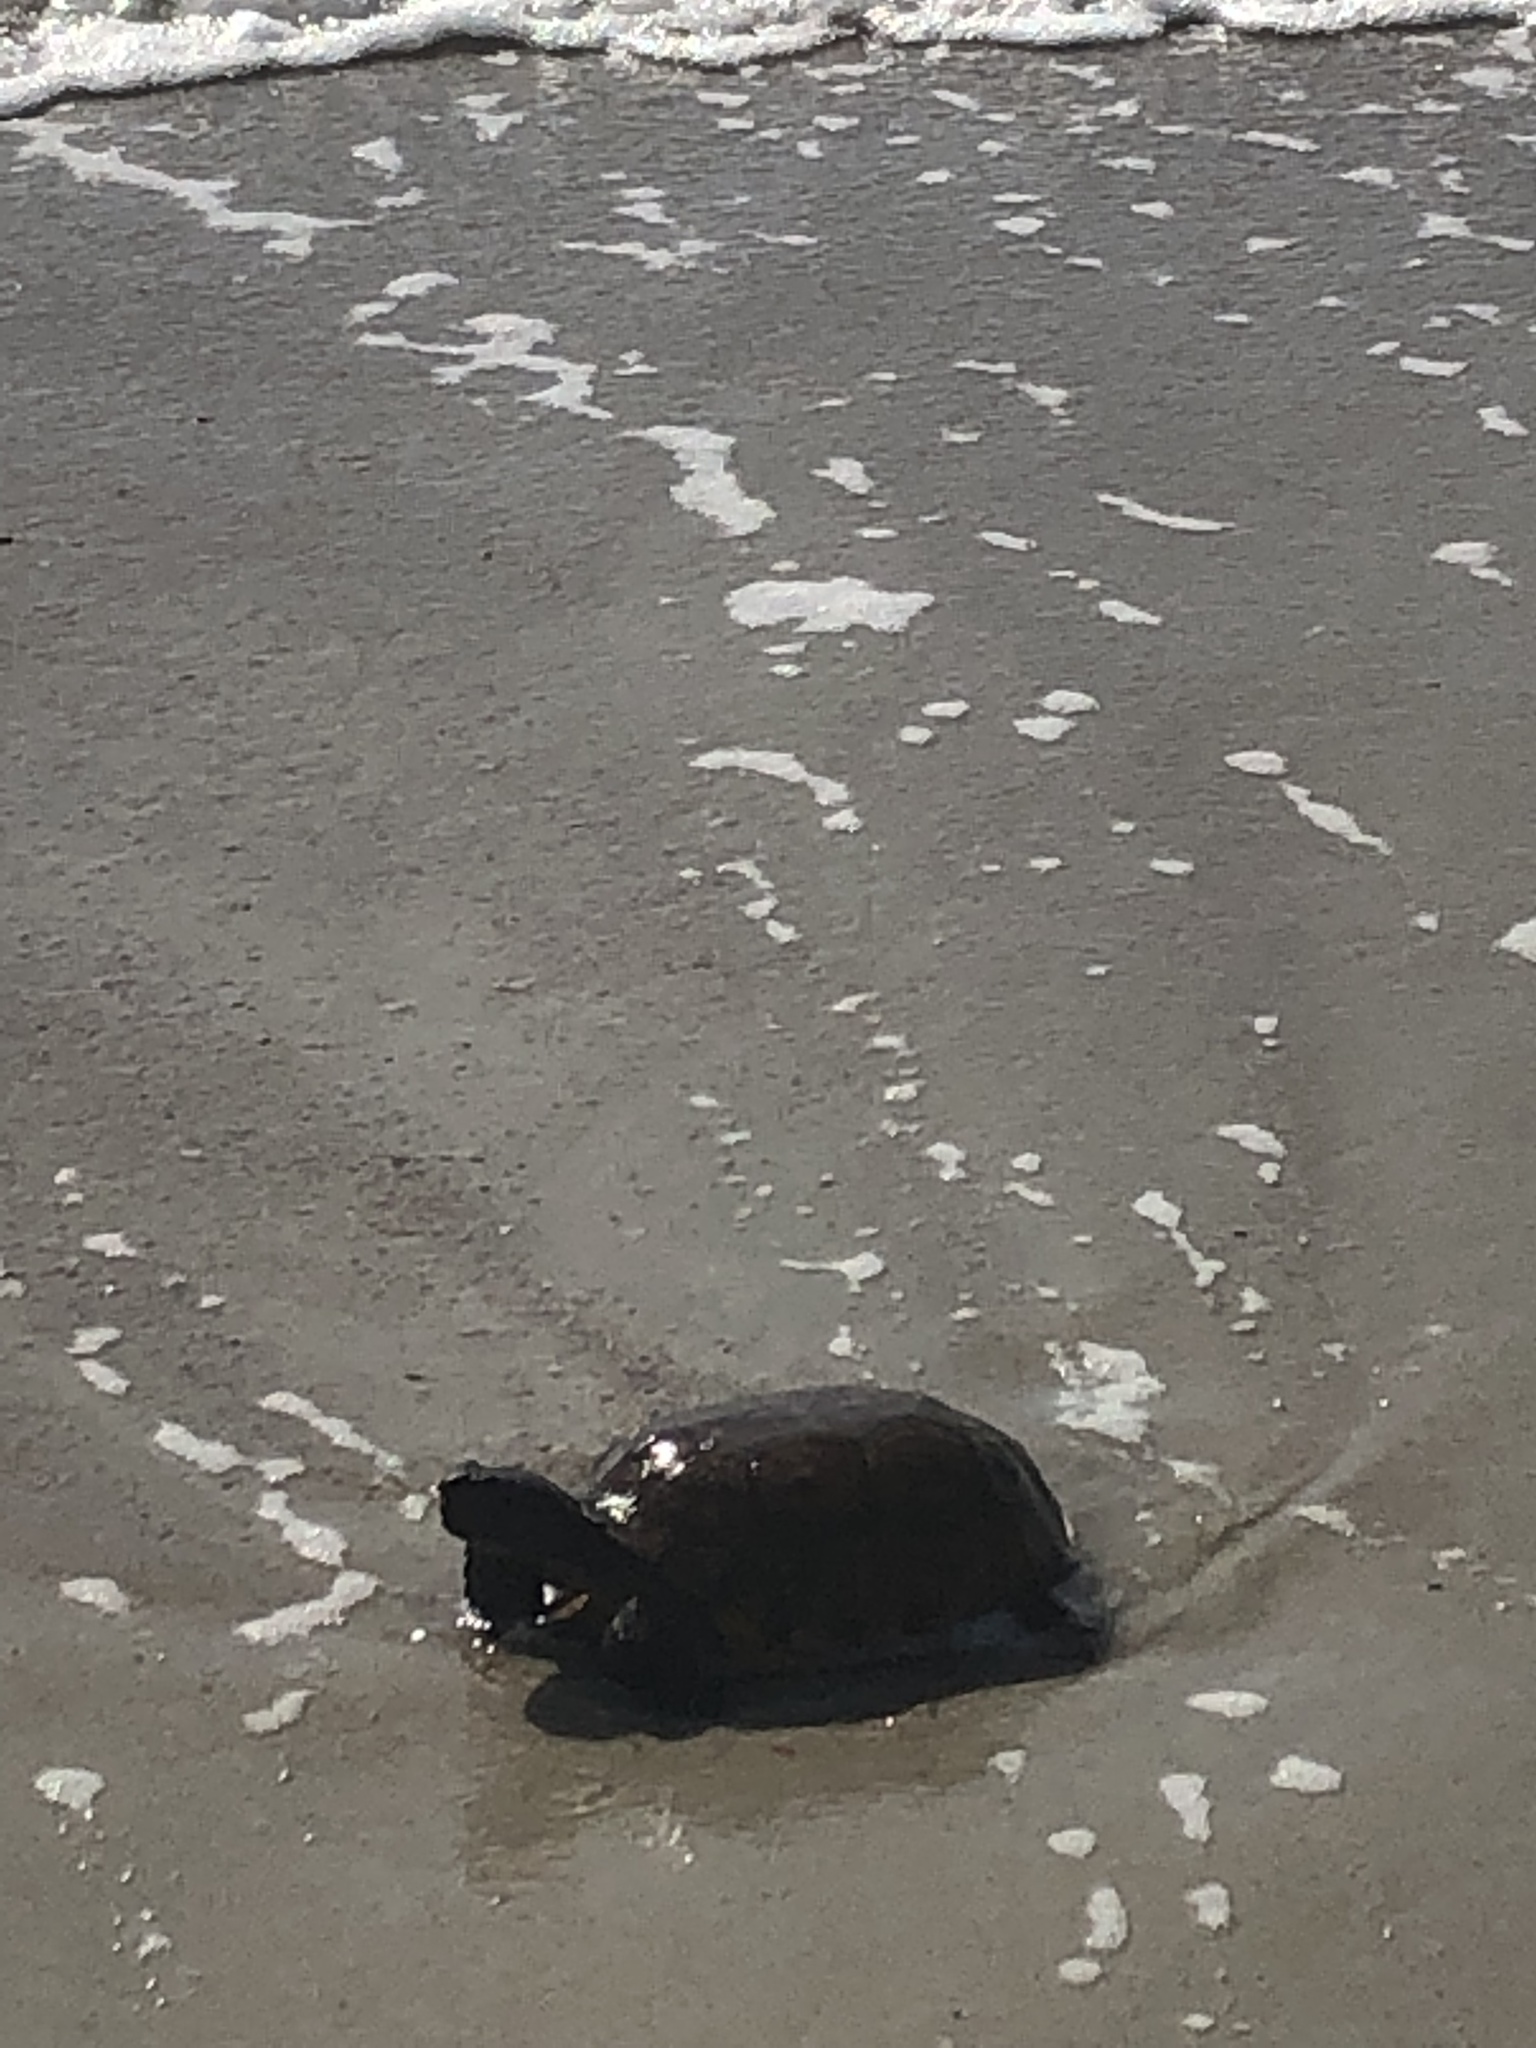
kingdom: Animalia
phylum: Chordata
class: Testudines
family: Testudinidae
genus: Gopherus
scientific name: Gopherus polyphemus
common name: Florida gopher tortoise
